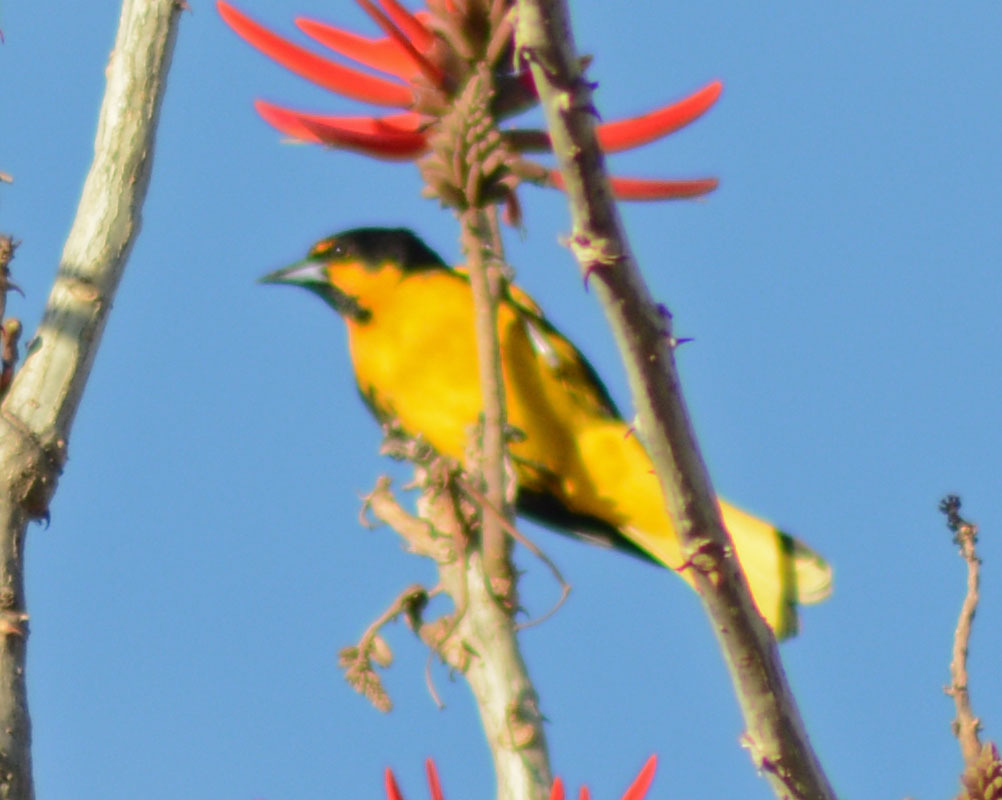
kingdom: Animalia
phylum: Chordata
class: Aves
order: Passeriformes
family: Icteridae
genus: Icterus
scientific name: Icterus abeillei
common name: Black-backed oriole
